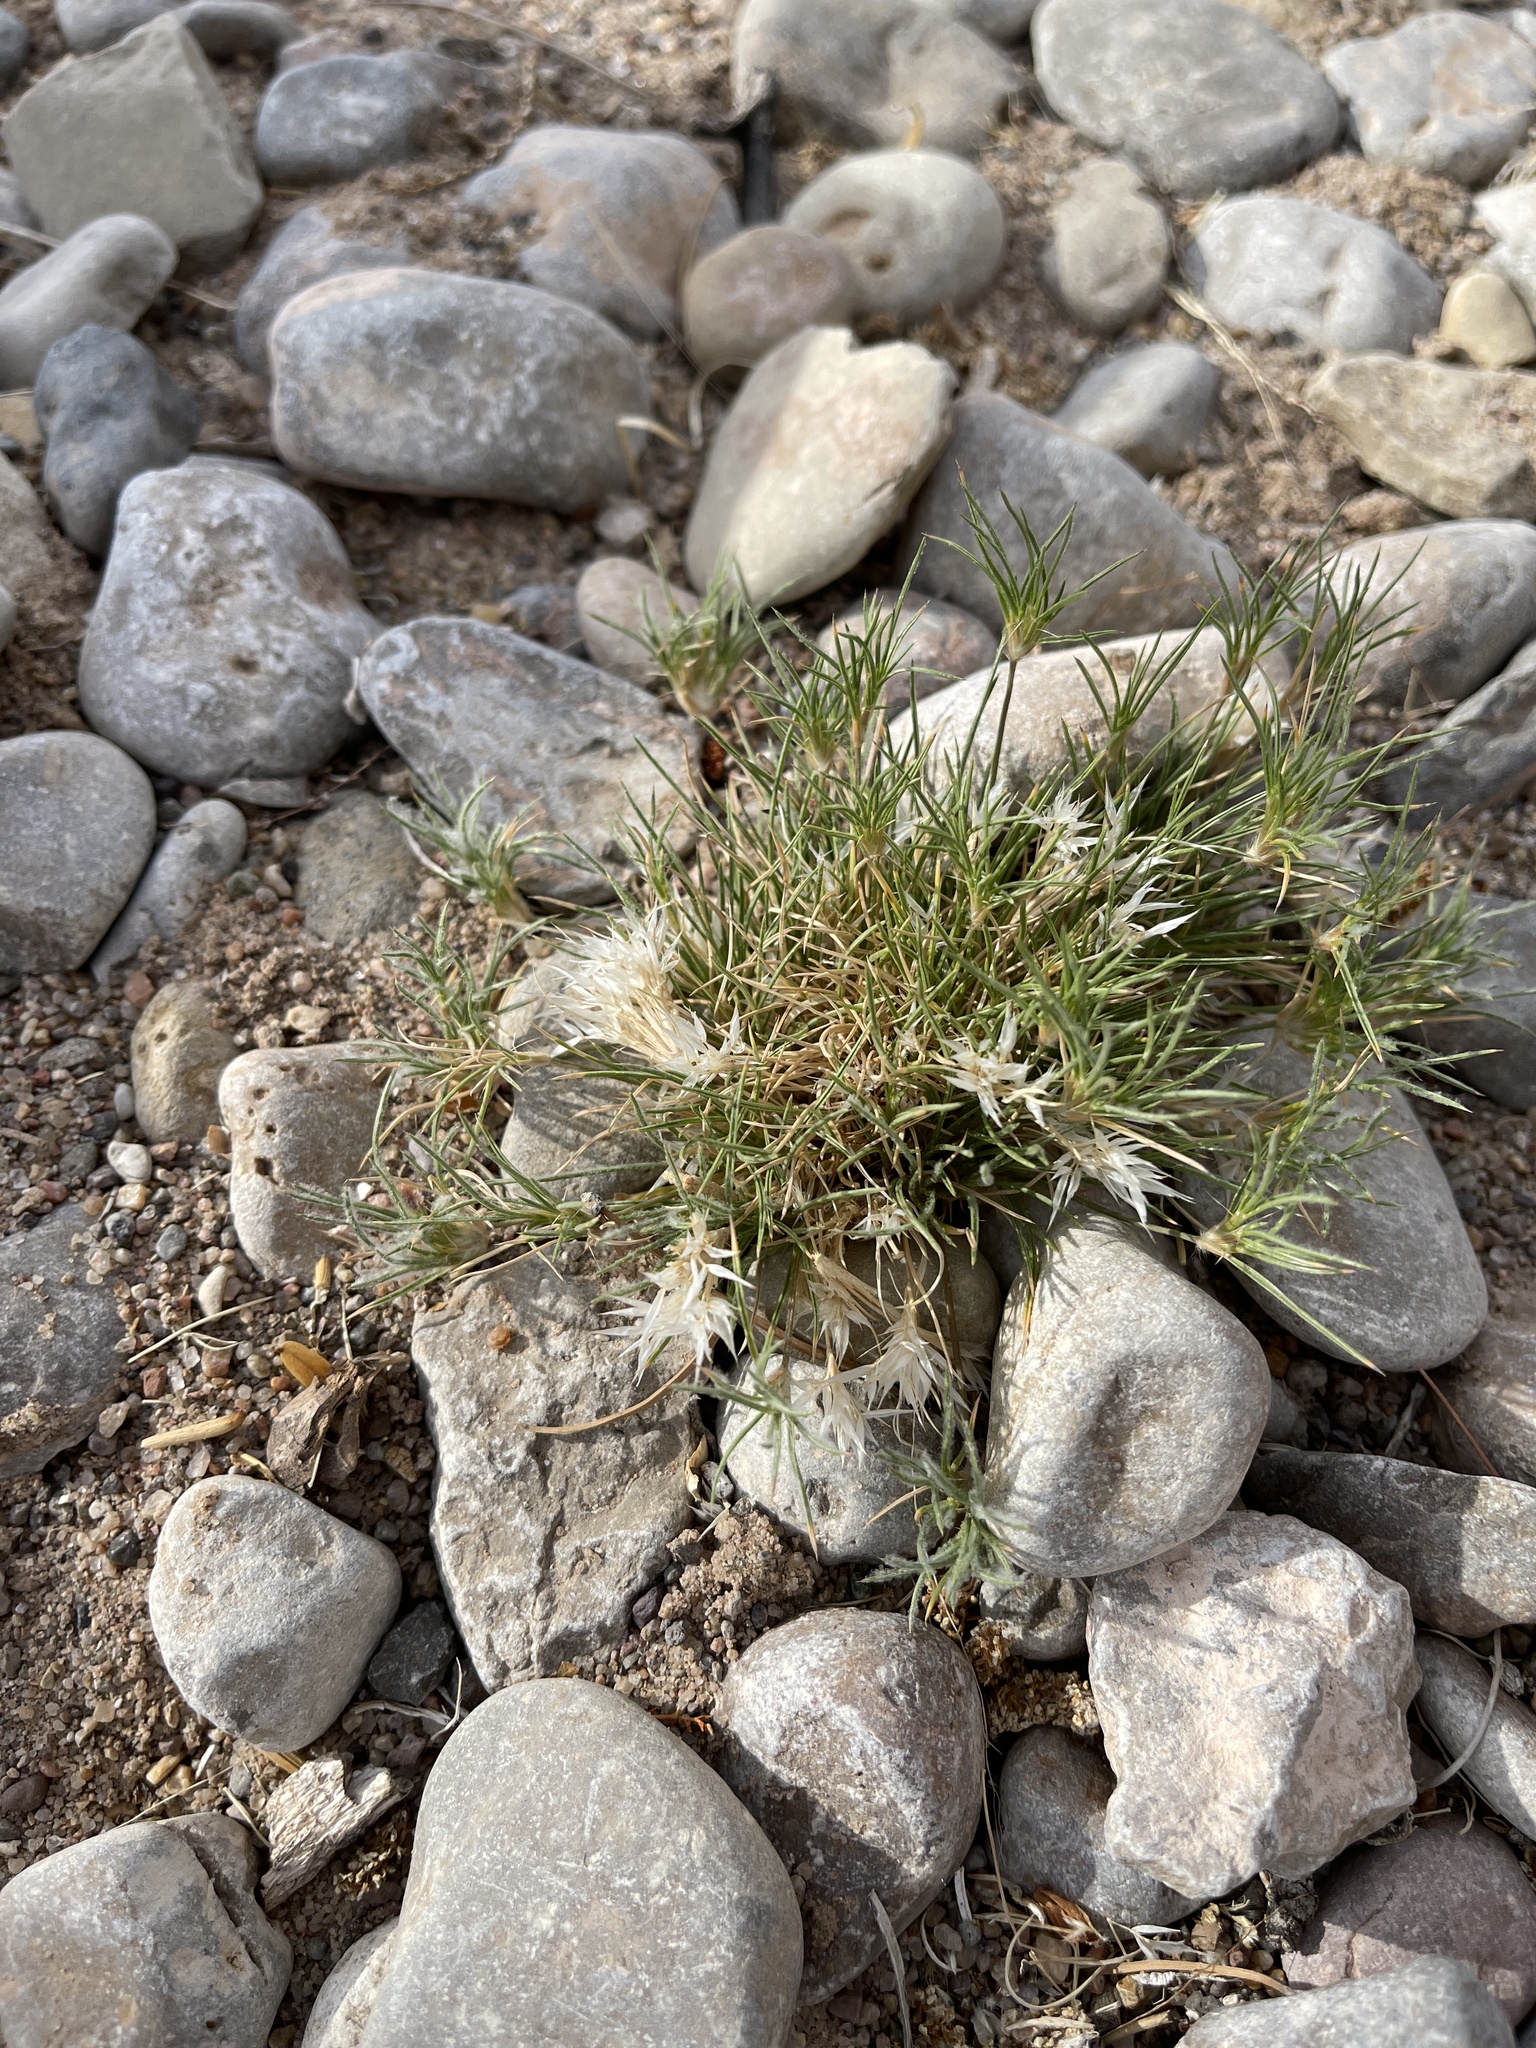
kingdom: Plantae
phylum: Tracheophyta
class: Liliopsida
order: Poales
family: Poaceae
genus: Dasyochloa
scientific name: Dasyochloa pulchella
